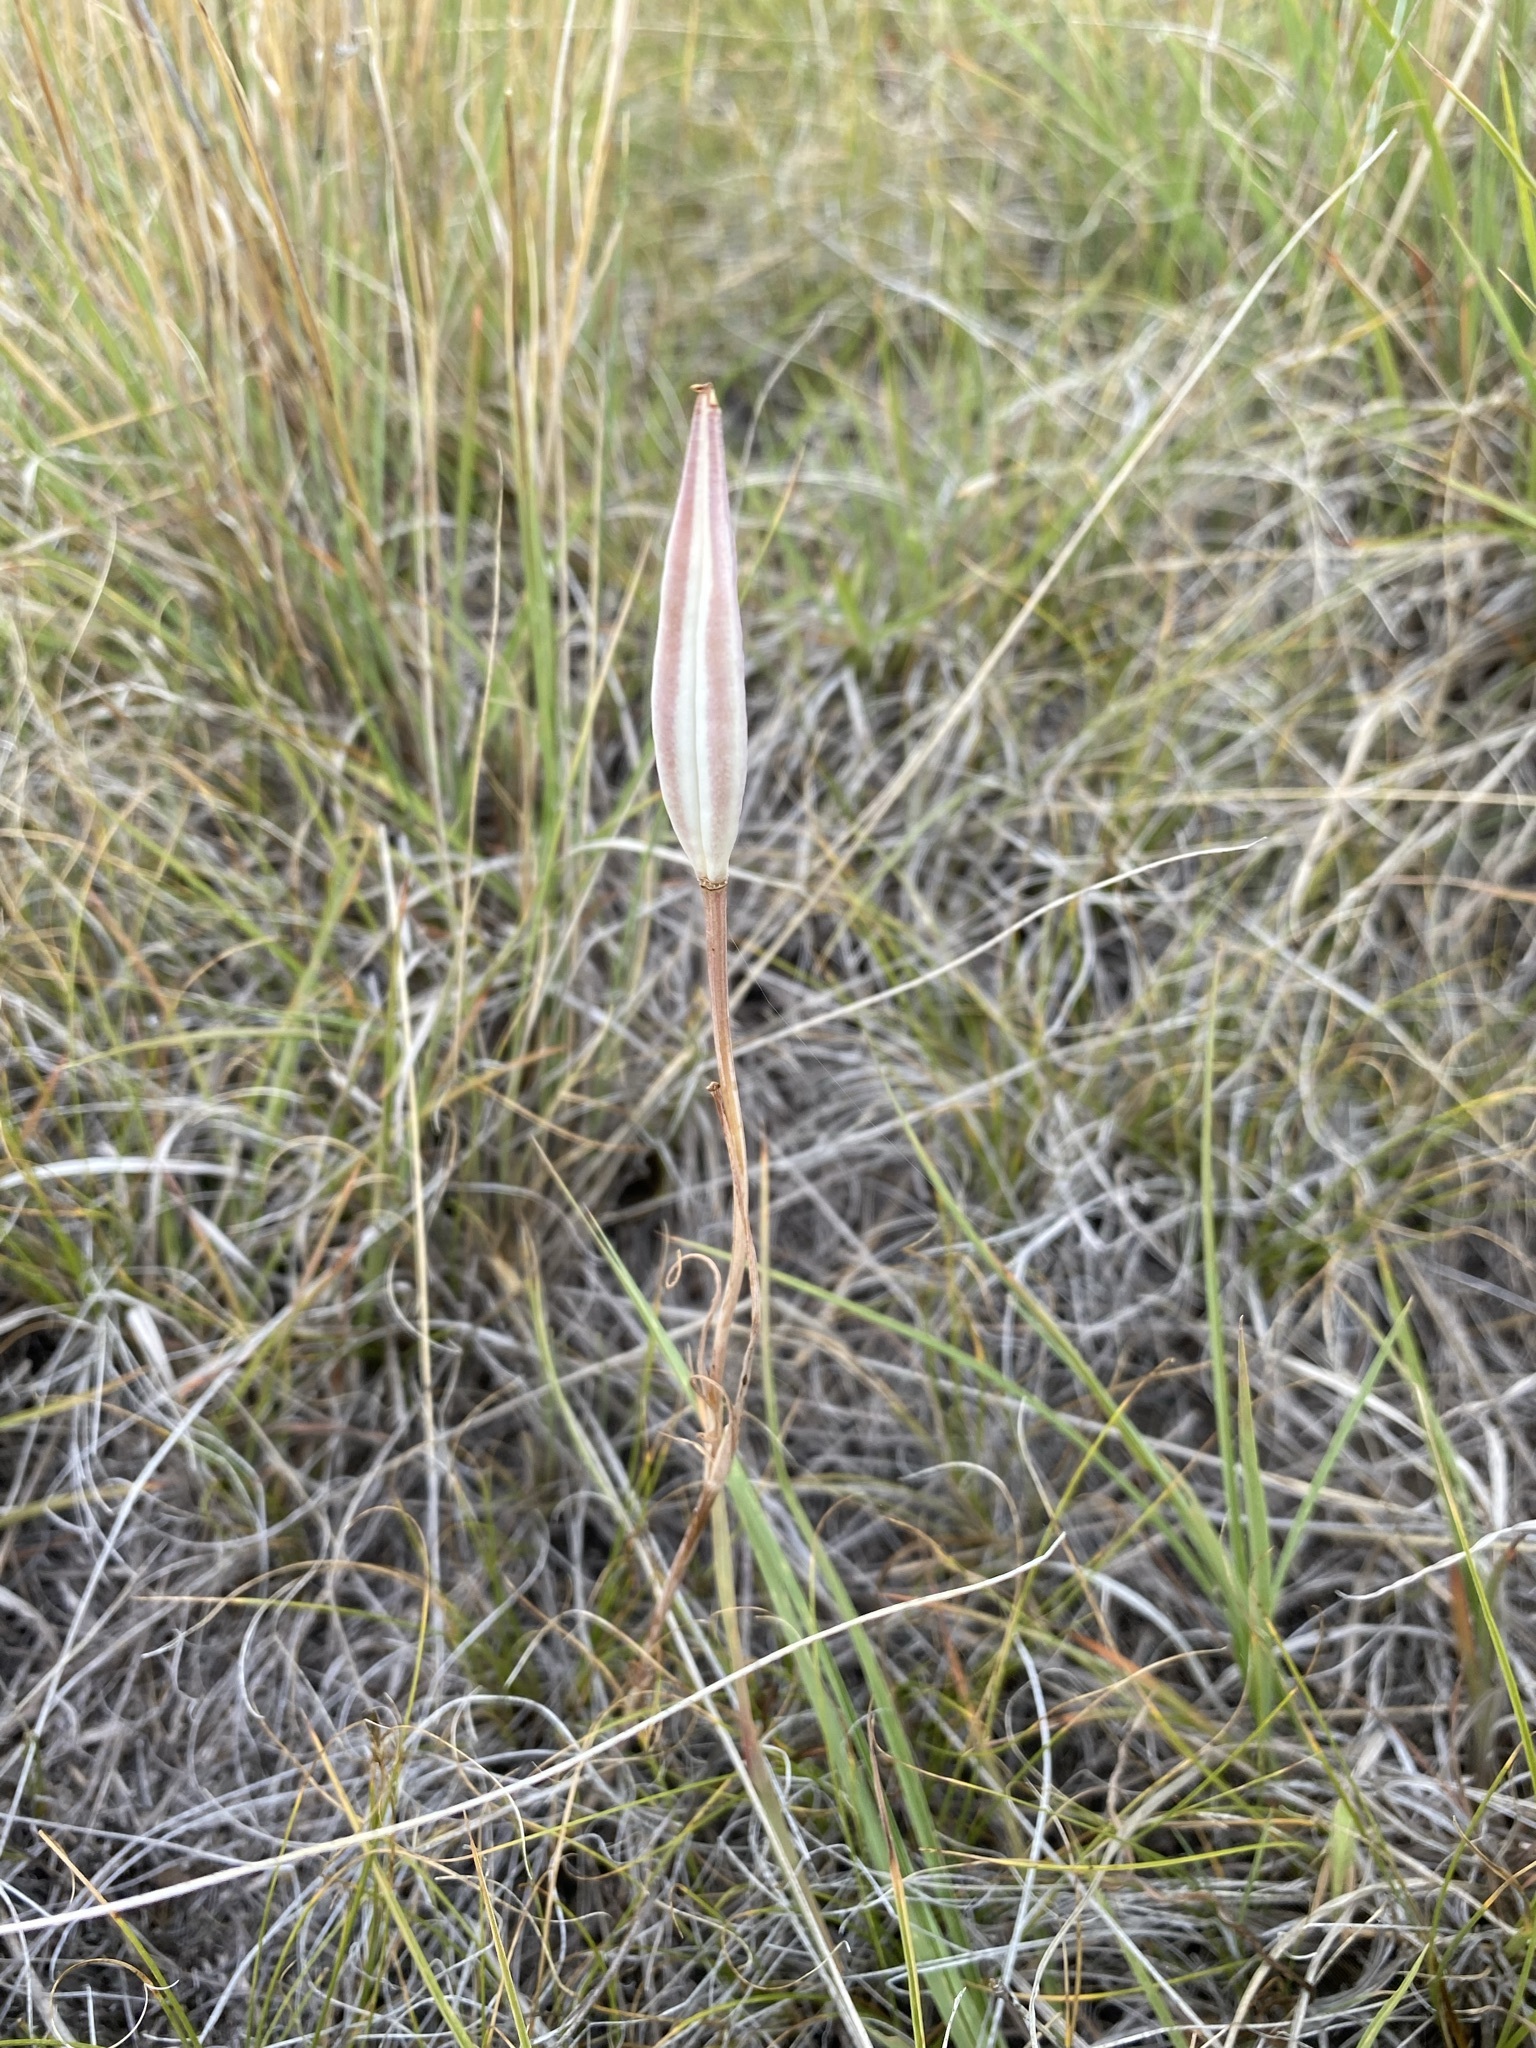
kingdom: Plantae
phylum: Tracheophyta
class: Liliopsida
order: Liliales
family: Liliaceae
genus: Calochortus
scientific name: Calochortus nuttallii
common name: Sego-lily
